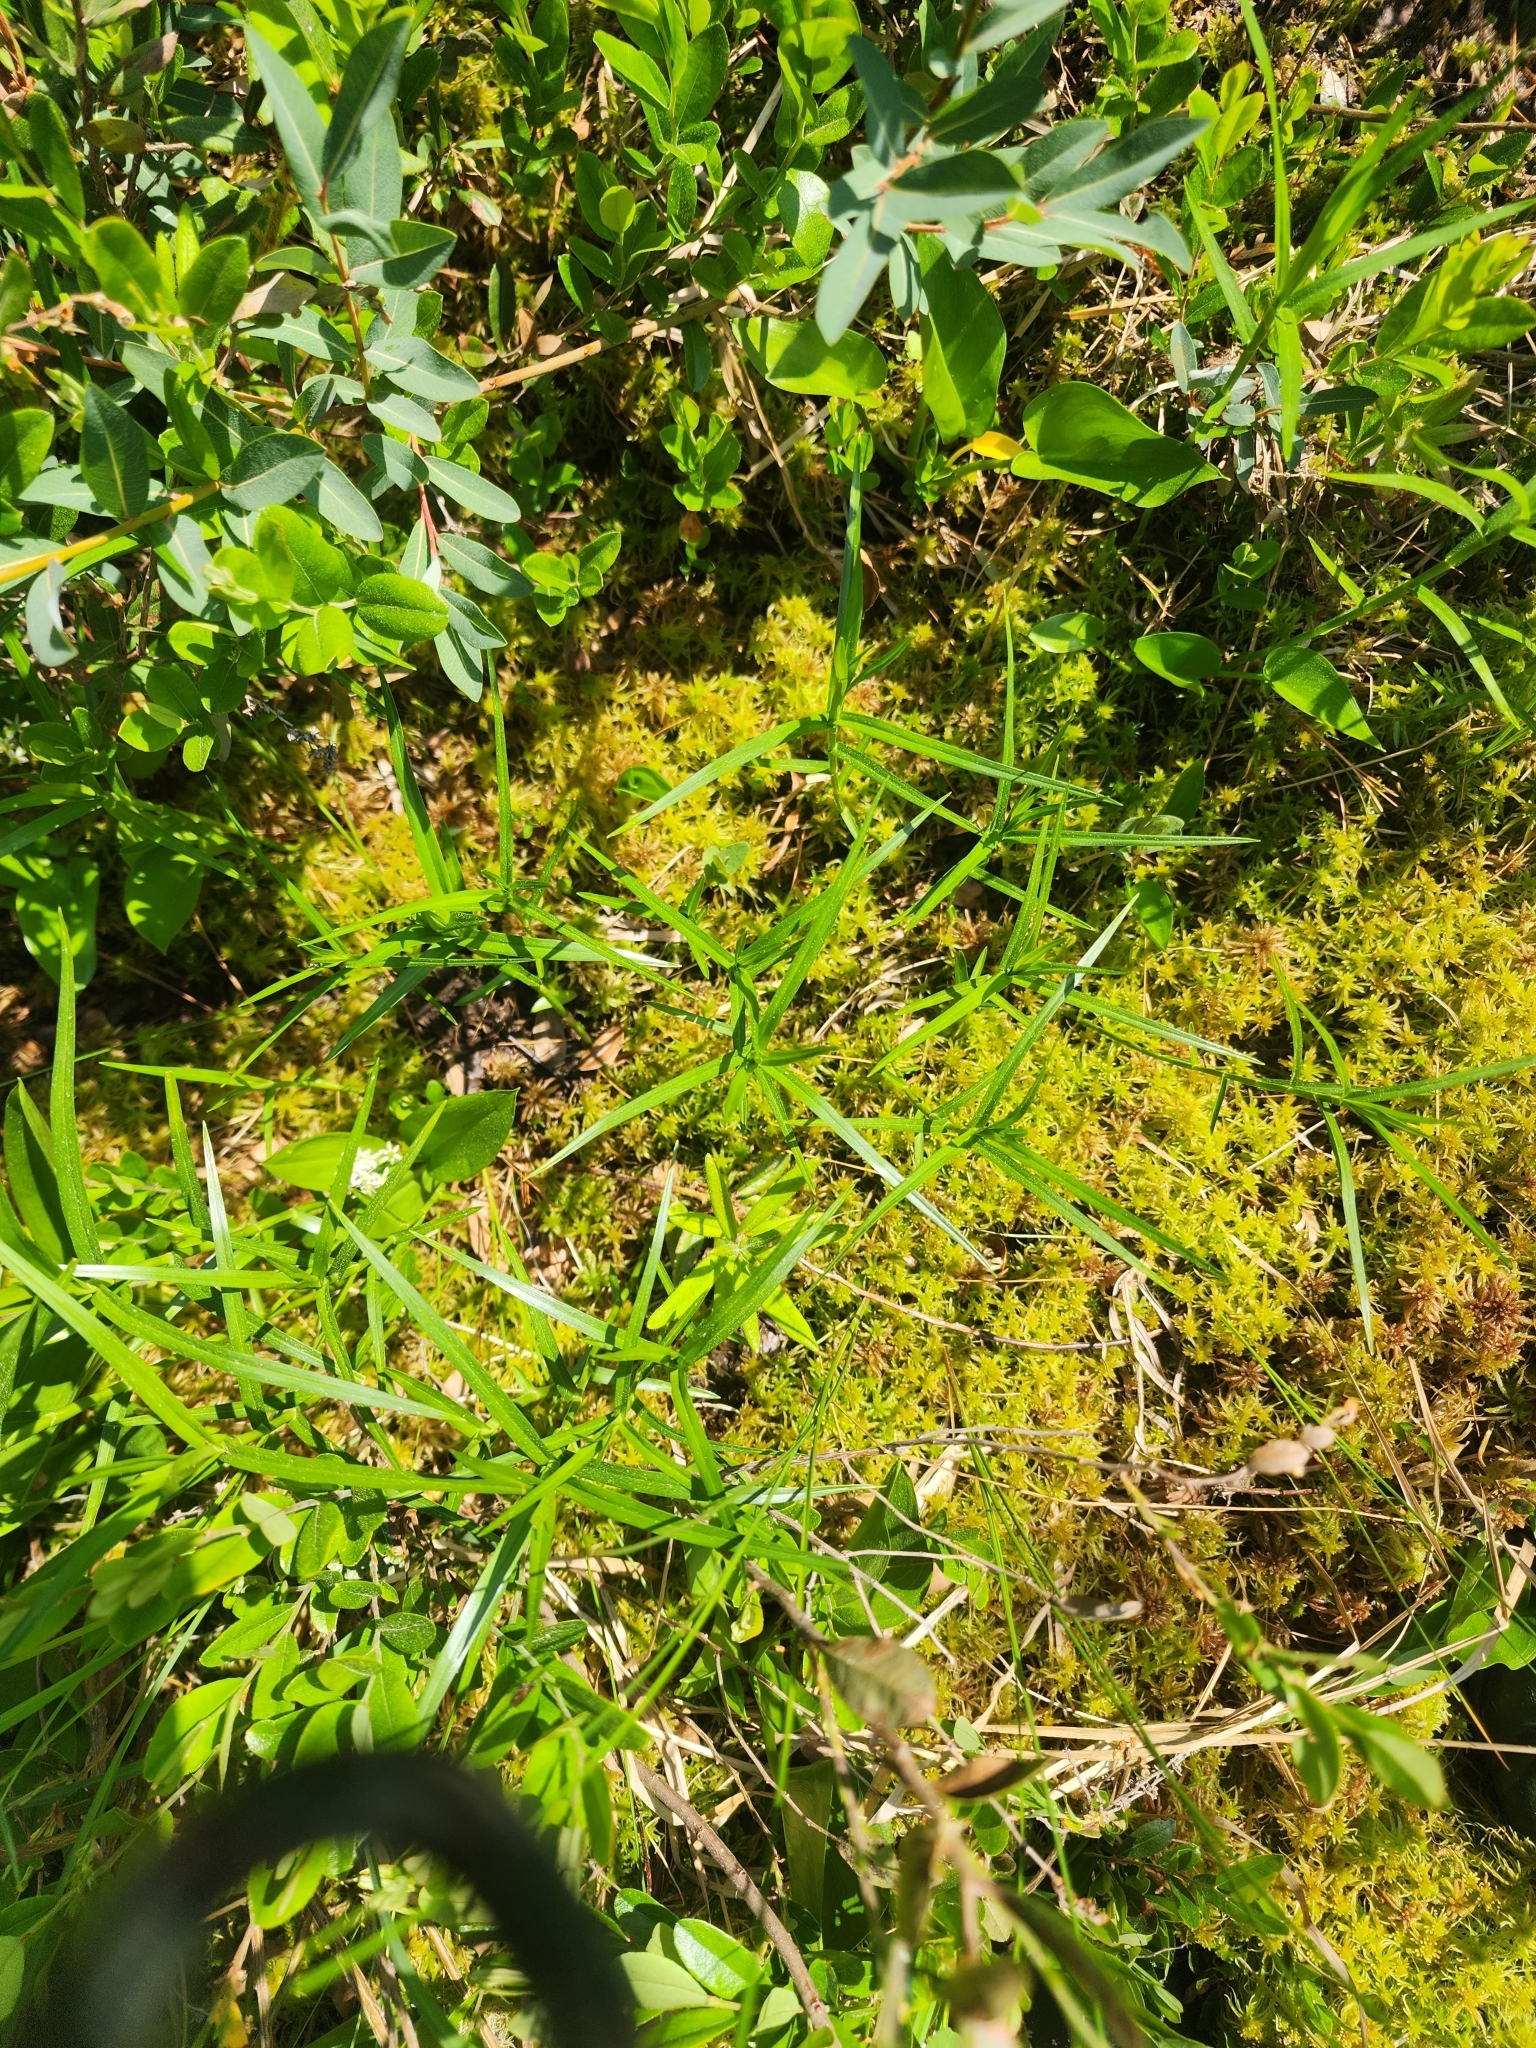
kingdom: Plantae
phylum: Tracheophyta
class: Liliopsida
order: Poales
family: Cyperaceae
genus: Dulichium
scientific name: Dulichium arundinaceum
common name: Three-way sedge
